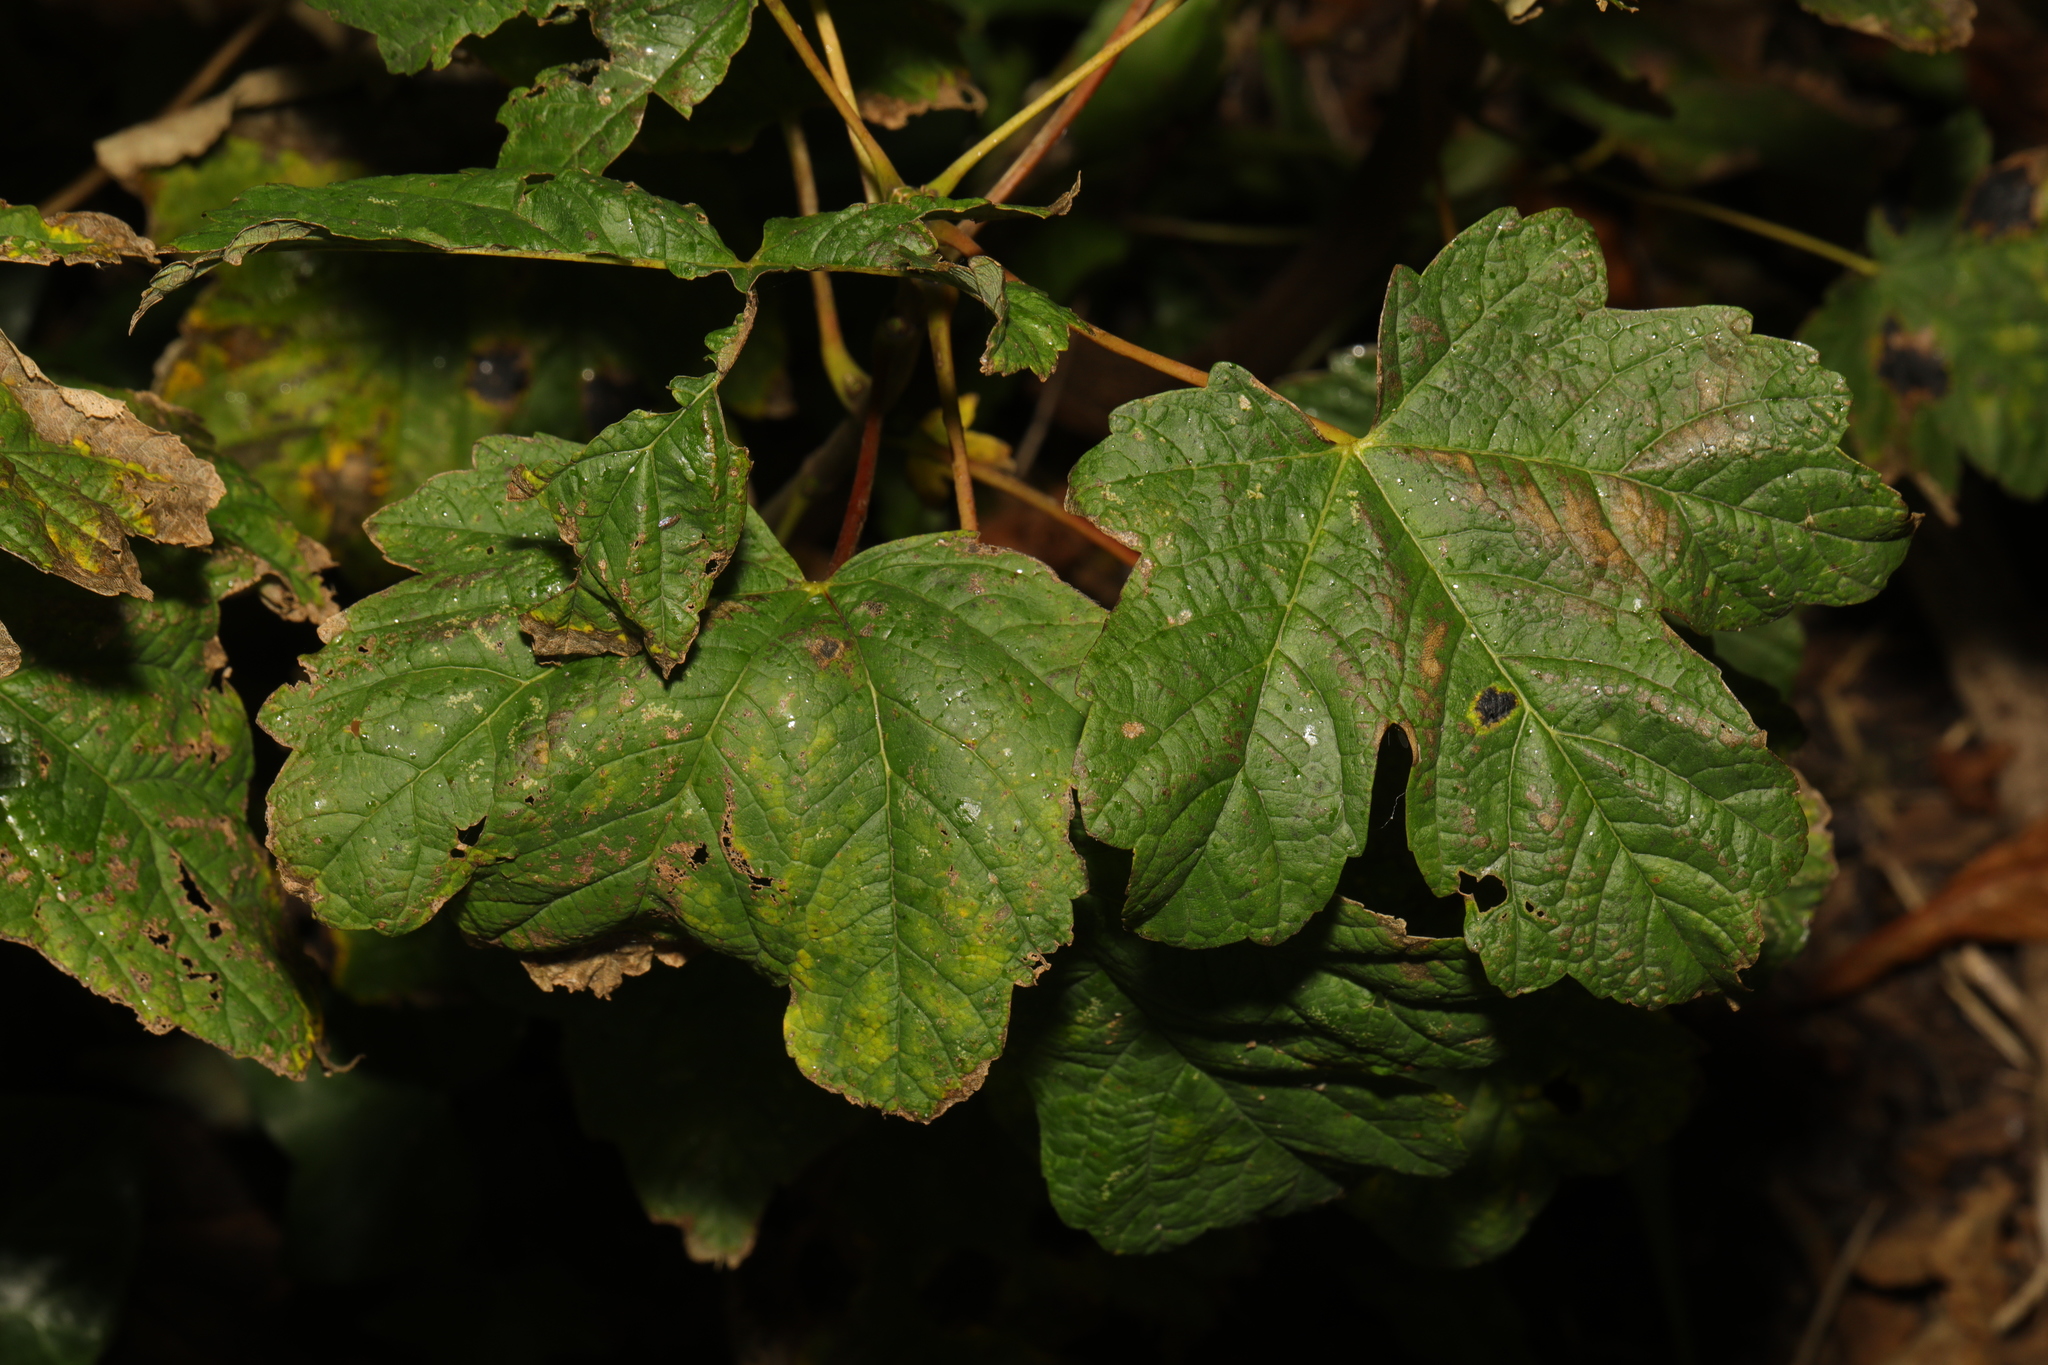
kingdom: Plantae
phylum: Tracheophyta
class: Magnoliopsida
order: Sapindales
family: Sapindaceae
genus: Acer
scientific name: Acer pseudoplatanus
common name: Sycamore
